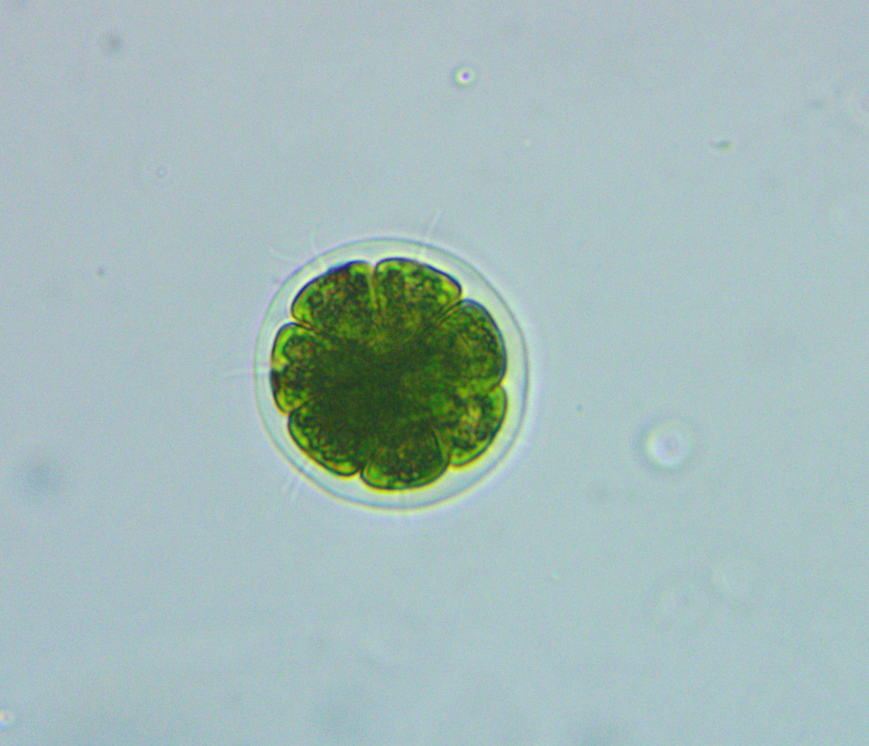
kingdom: Plantae
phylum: Chlorophyta
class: Chlorophyceae
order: Volvocales
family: Volvocaceae
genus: Pandorina
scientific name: Pandorina morum
